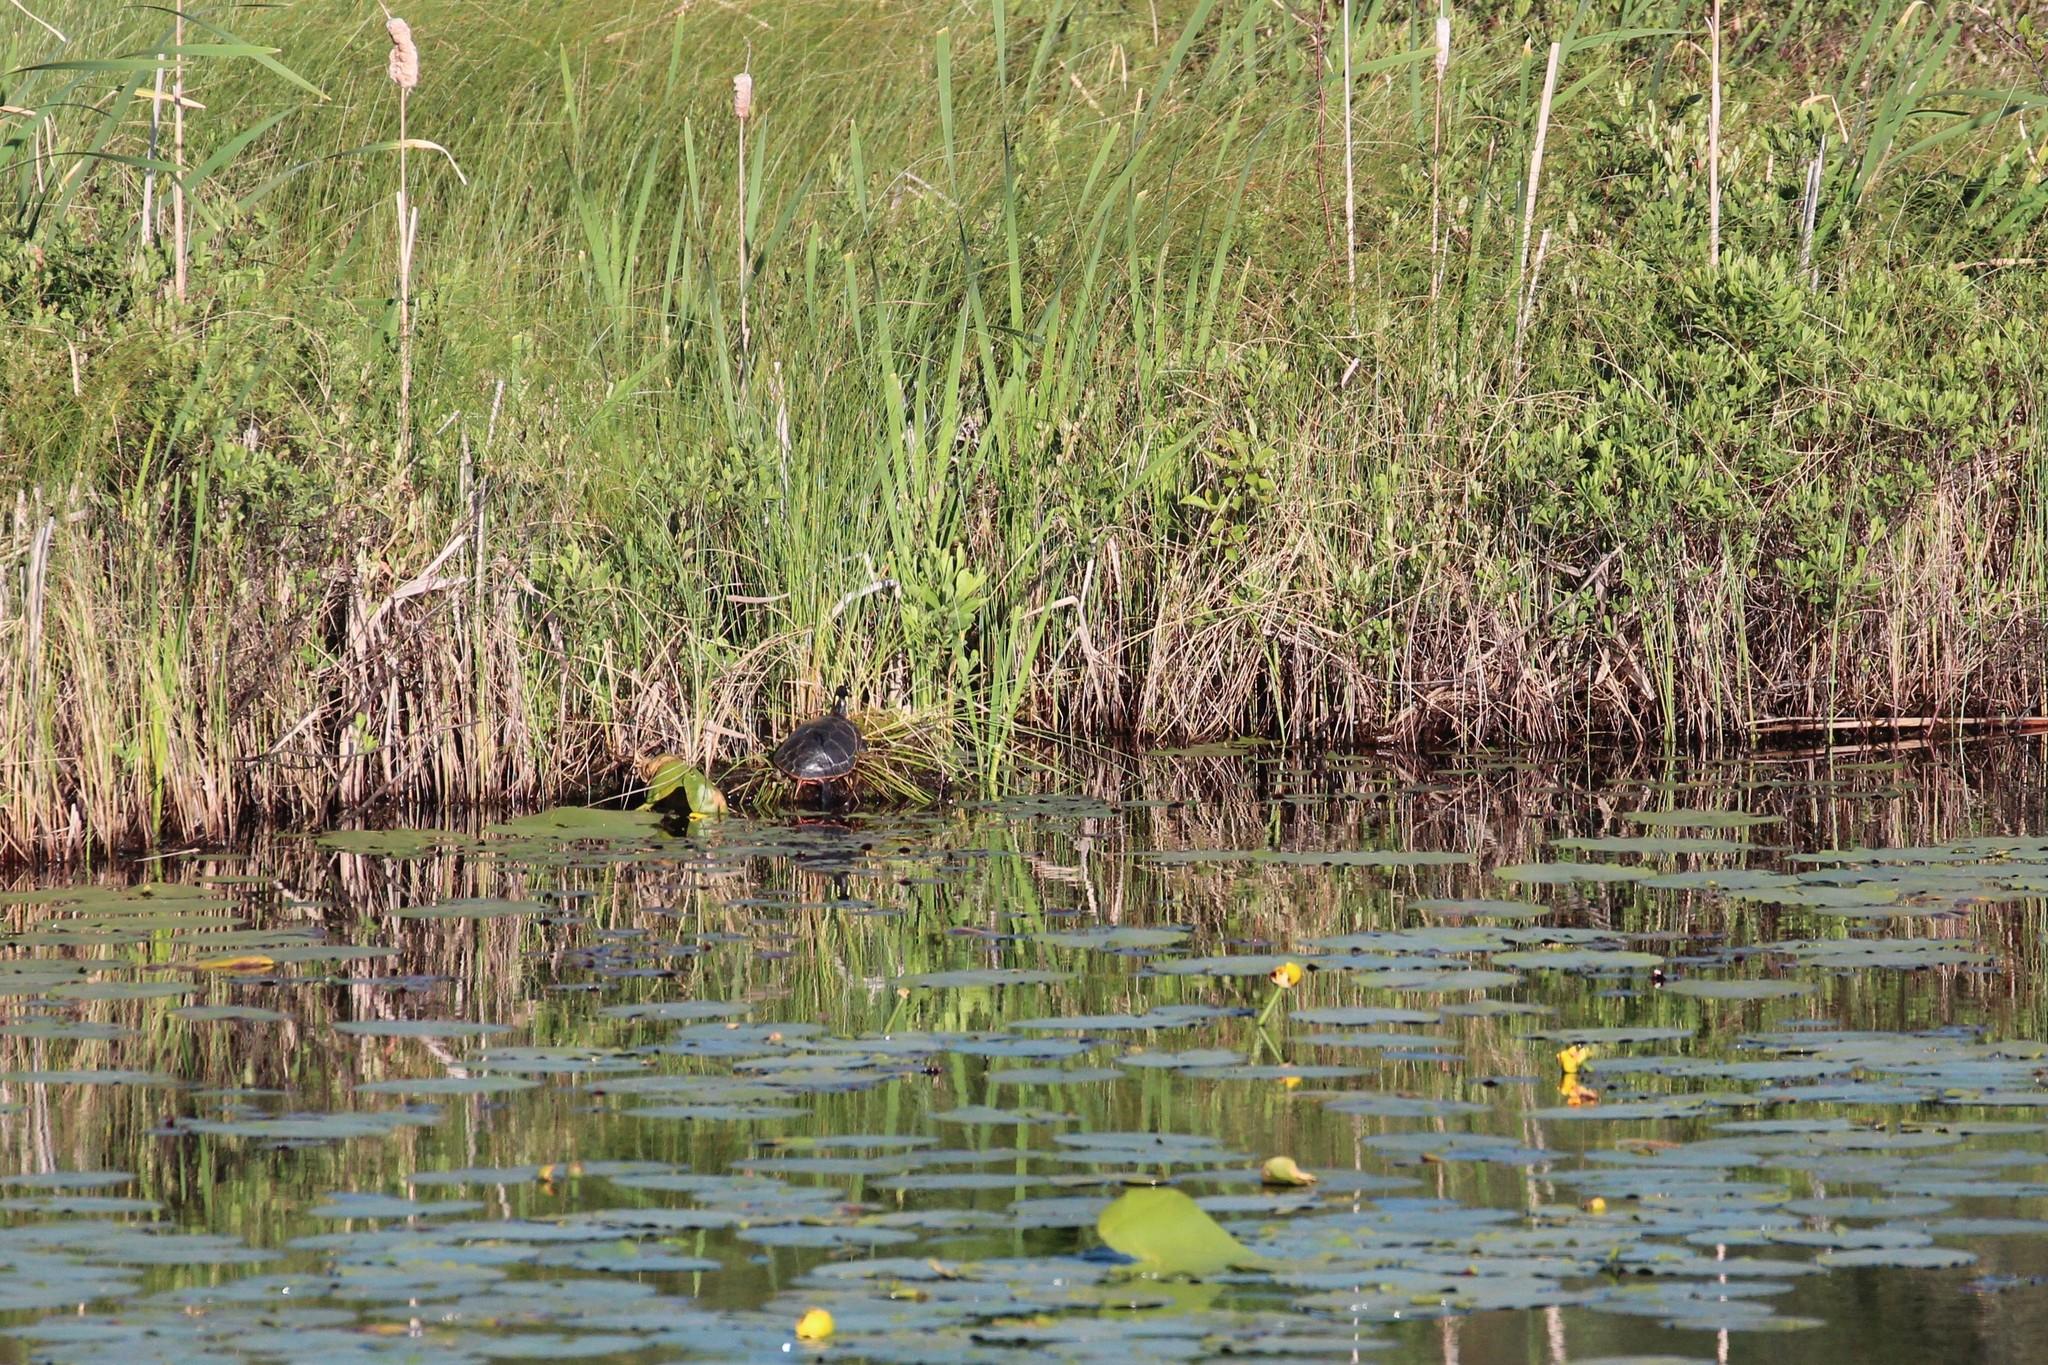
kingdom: Animalia
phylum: Chordata
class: Testudines
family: Emydidae
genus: Chrysemys
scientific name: Chrysemys picta
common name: Painted turtle
